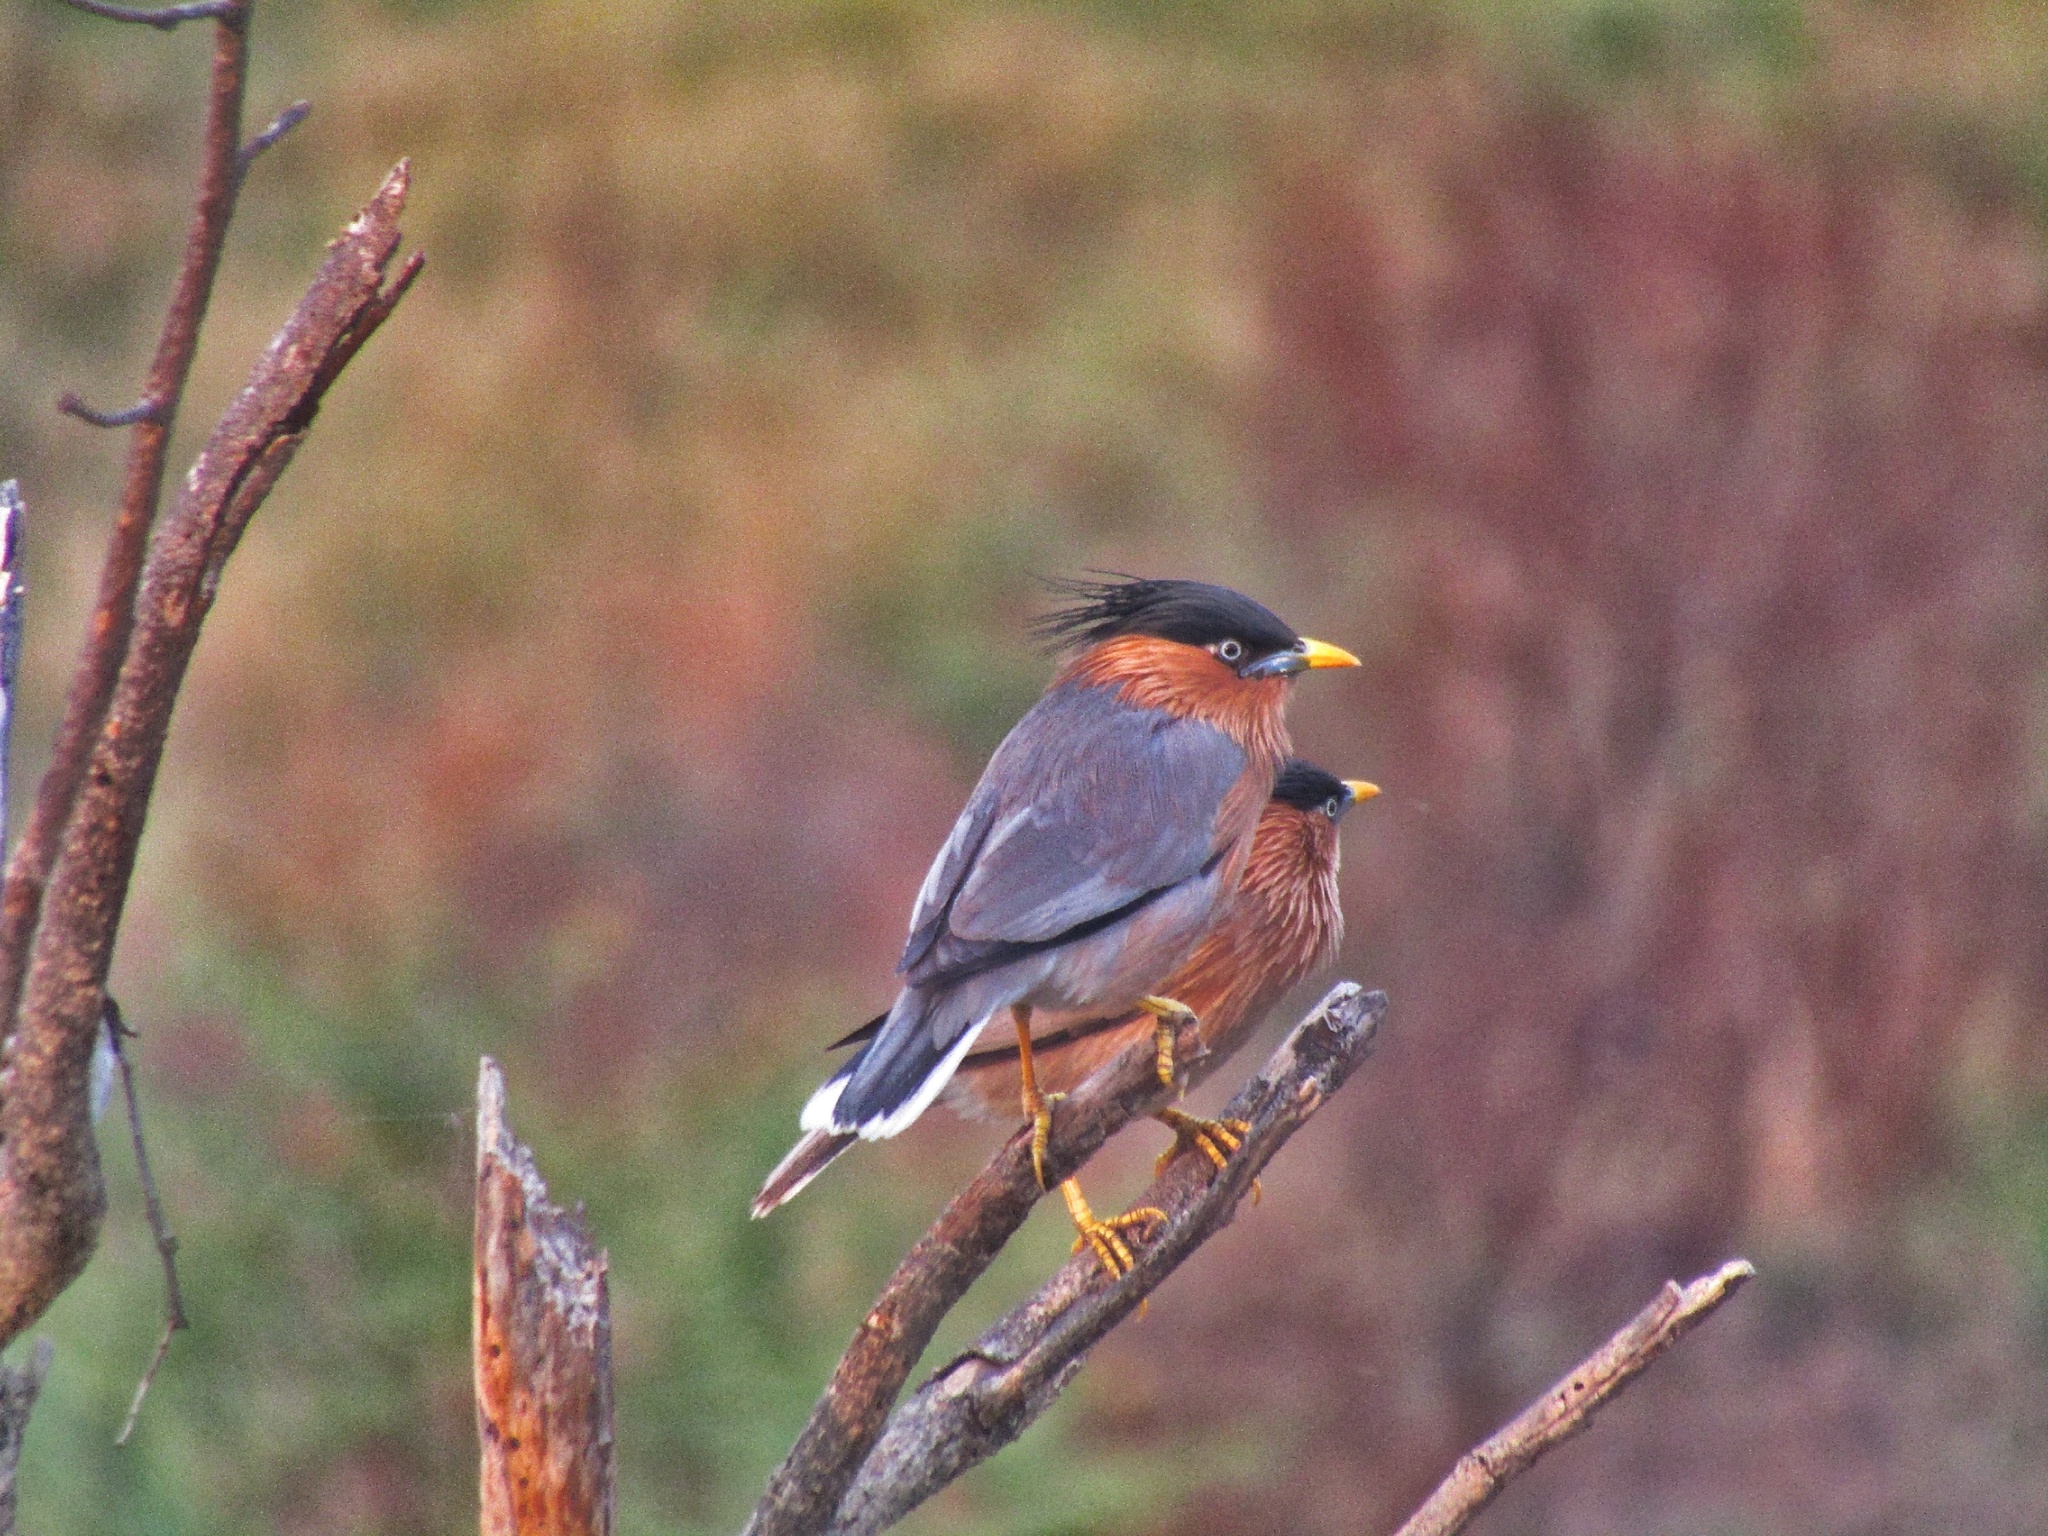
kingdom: Animalia
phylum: Chordata
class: Aves
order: Passeriformes
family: Sturnidae
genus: Sturnia
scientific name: Sturnia pagodarum
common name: Brahminy starling
